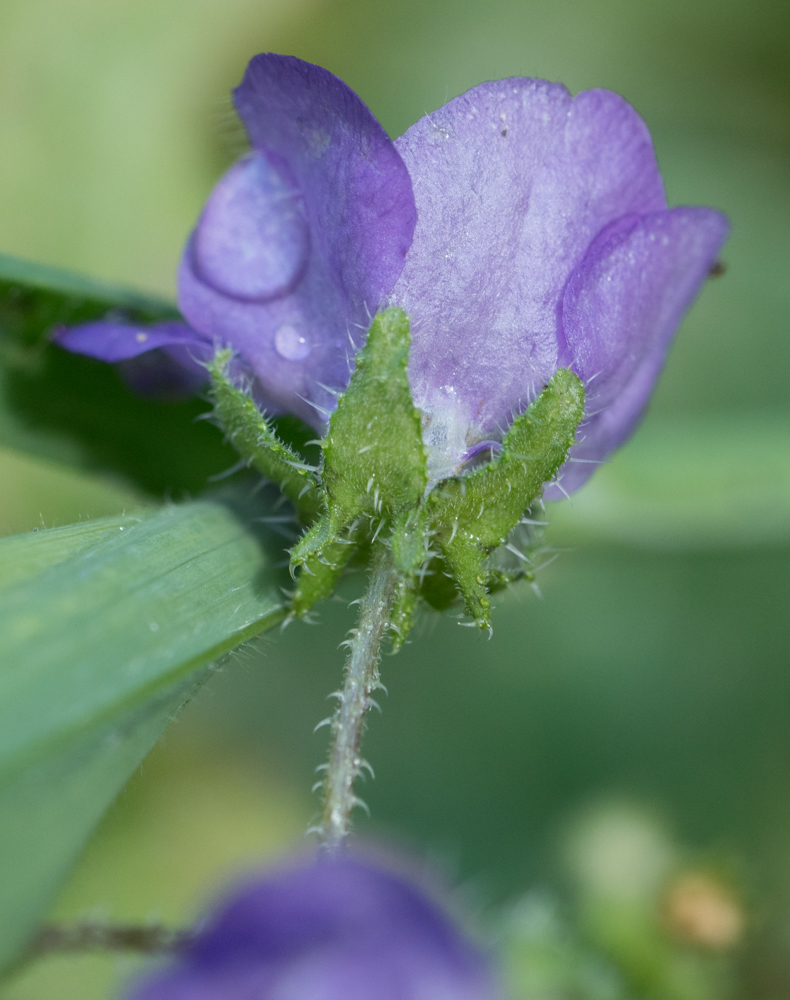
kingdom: Plantae
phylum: Tracheophyta
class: Magnoliopsida
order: Boraginales
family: Hydrophyllaceae
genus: Pholistoma
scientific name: Pholistoma auritum
